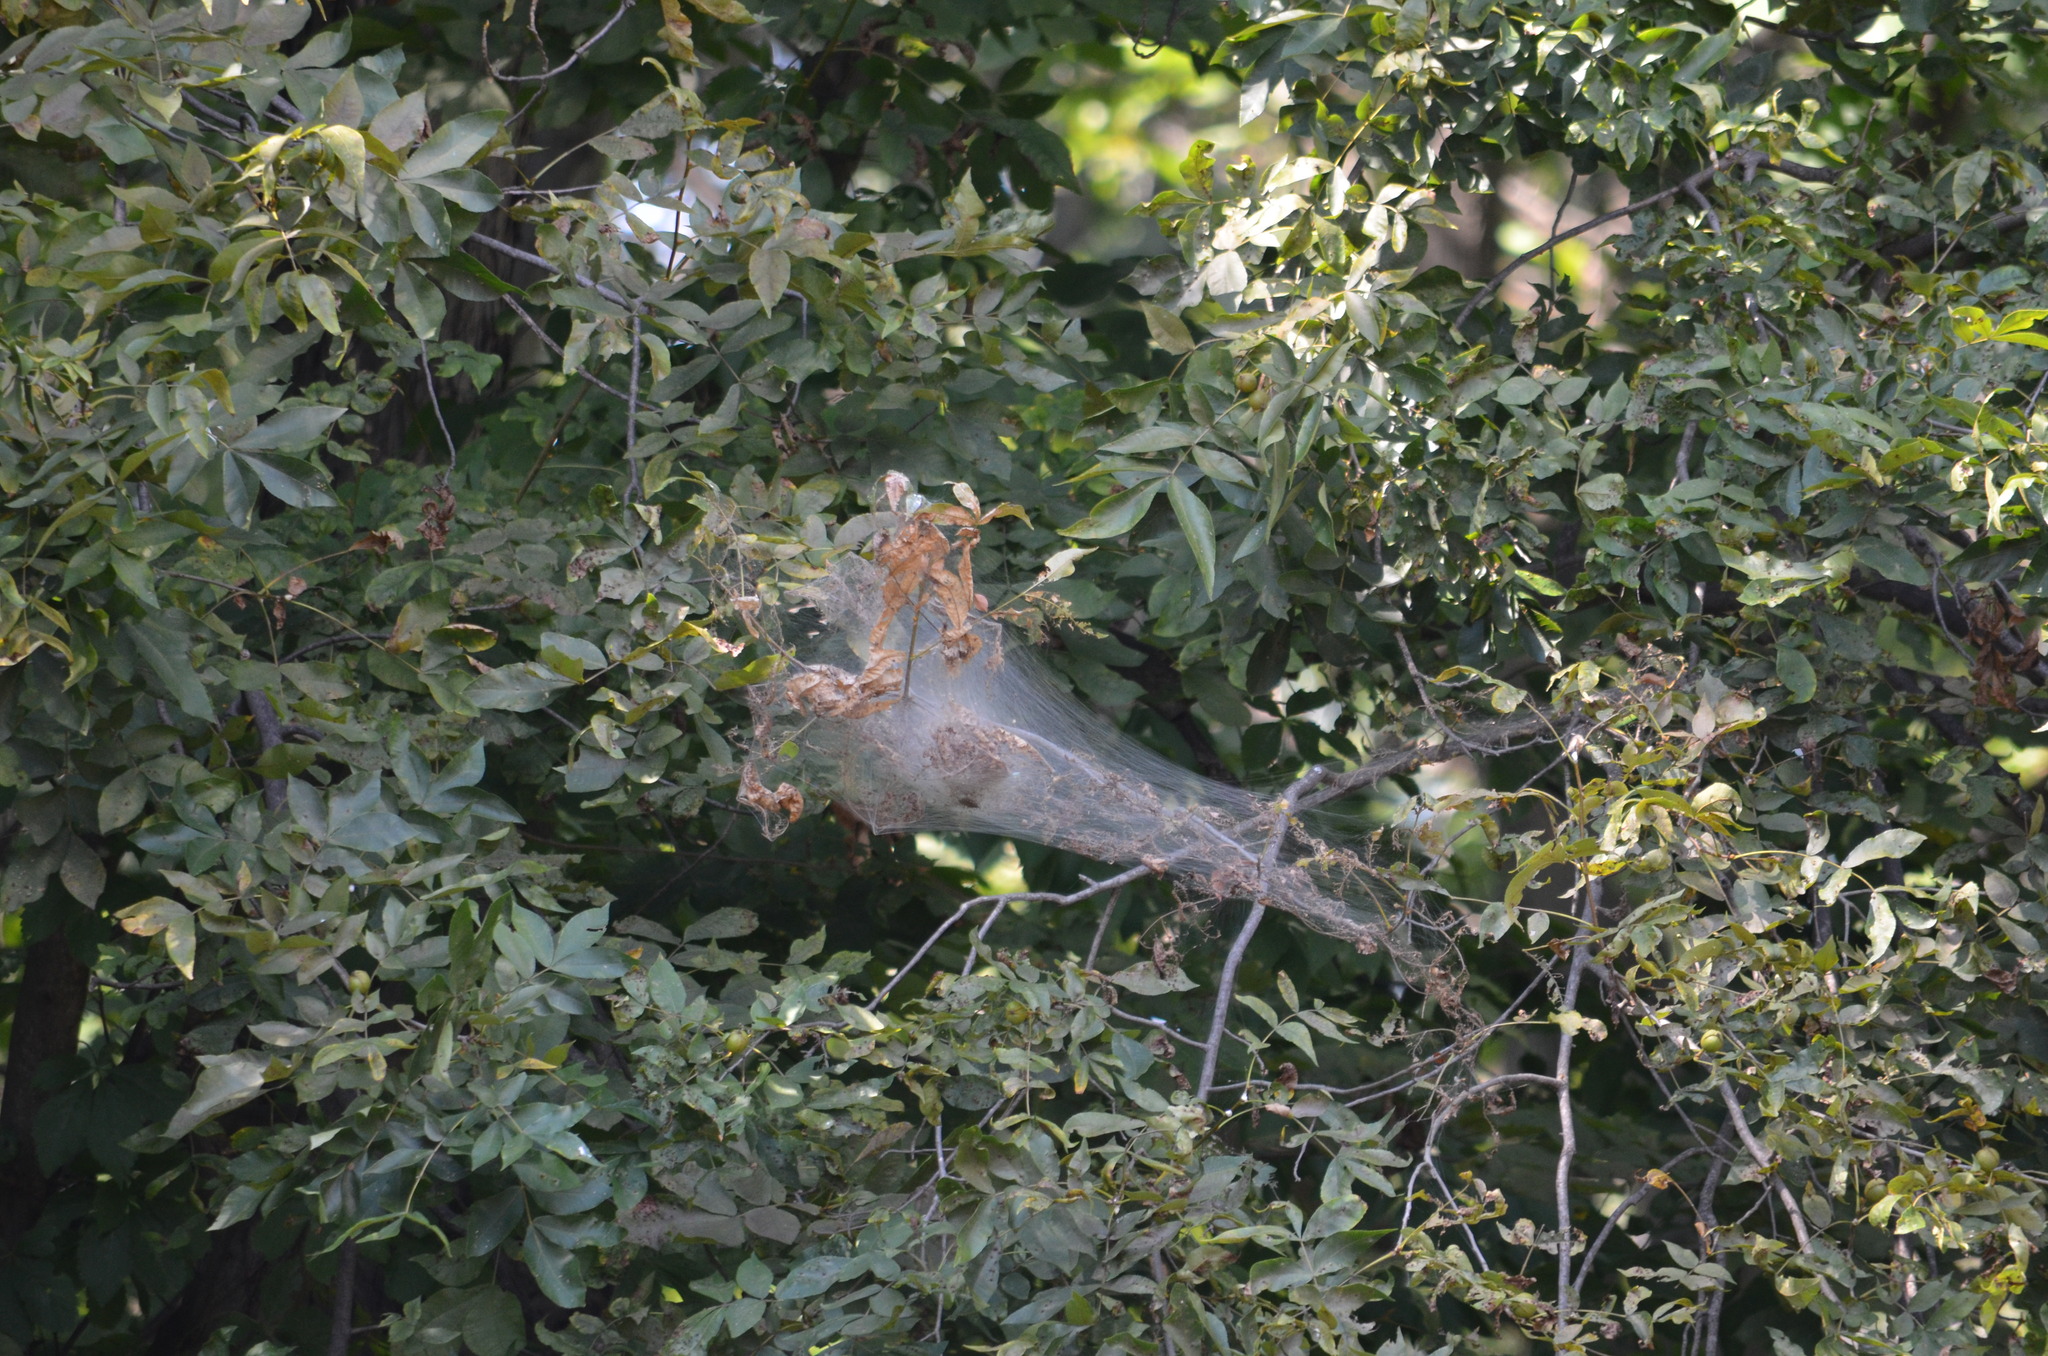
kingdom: Animalia
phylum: Arthropoda
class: Insecta
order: Lepidoptera
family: Erebidae
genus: Hyphantria
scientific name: Hyphantria cunea
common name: American white moth
